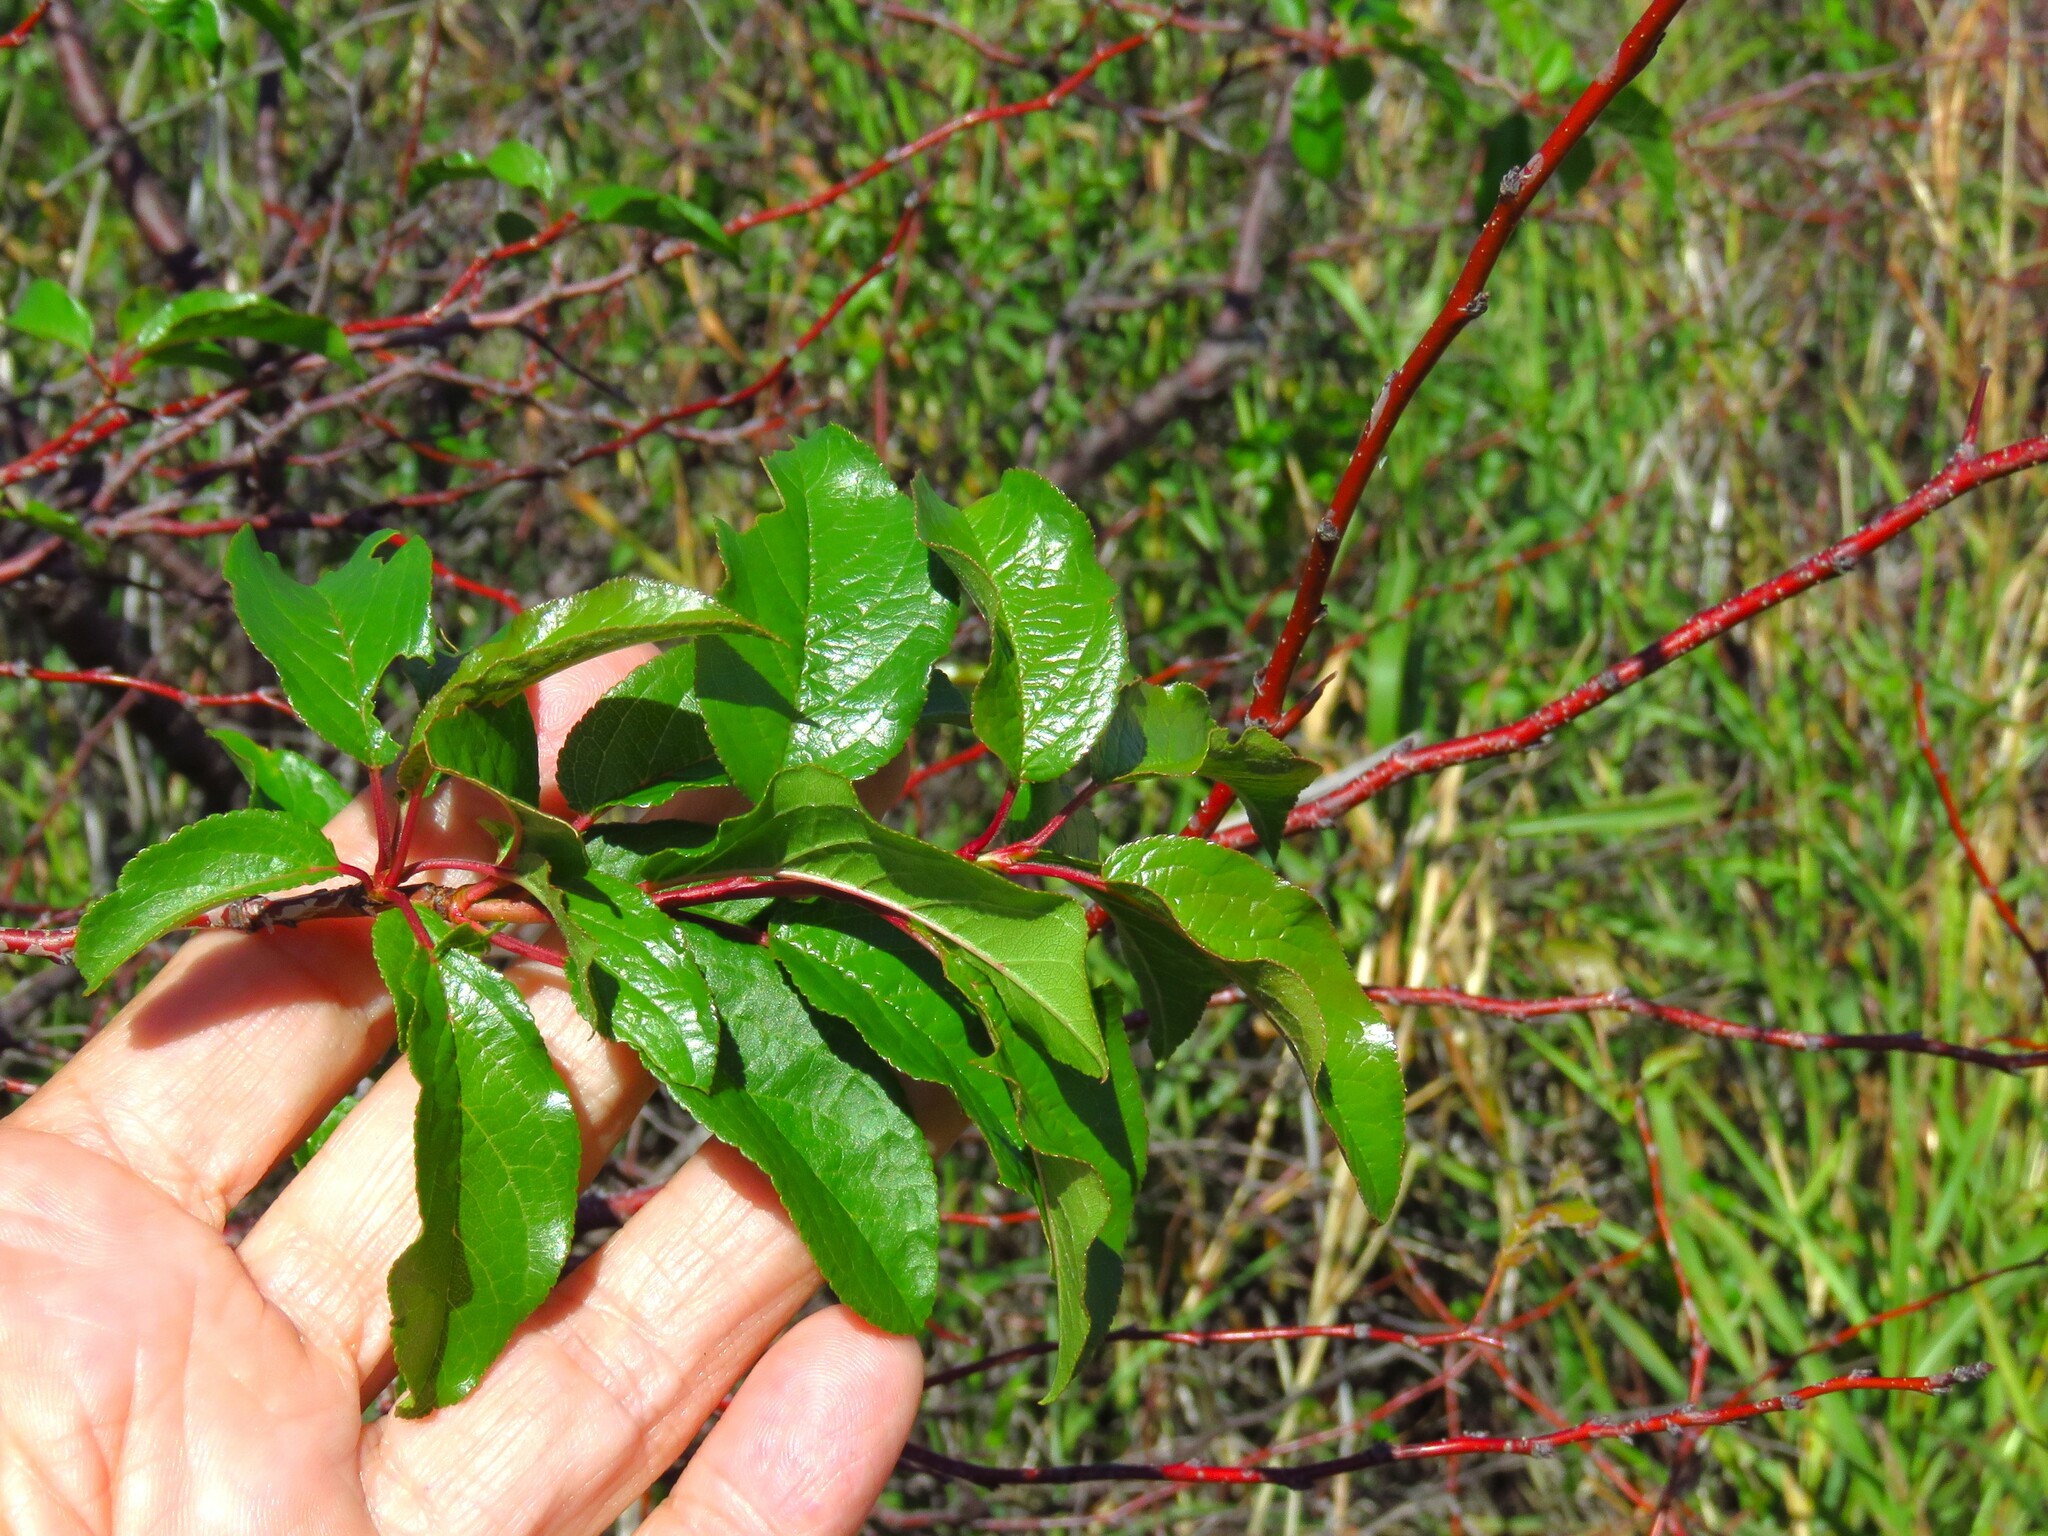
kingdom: Plantae
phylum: Tracheophyta
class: Magnoliopsida
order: Rosales
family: Rosaceae
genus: Prunus
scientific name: Prunus angustifolia
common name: Cherokee plum
